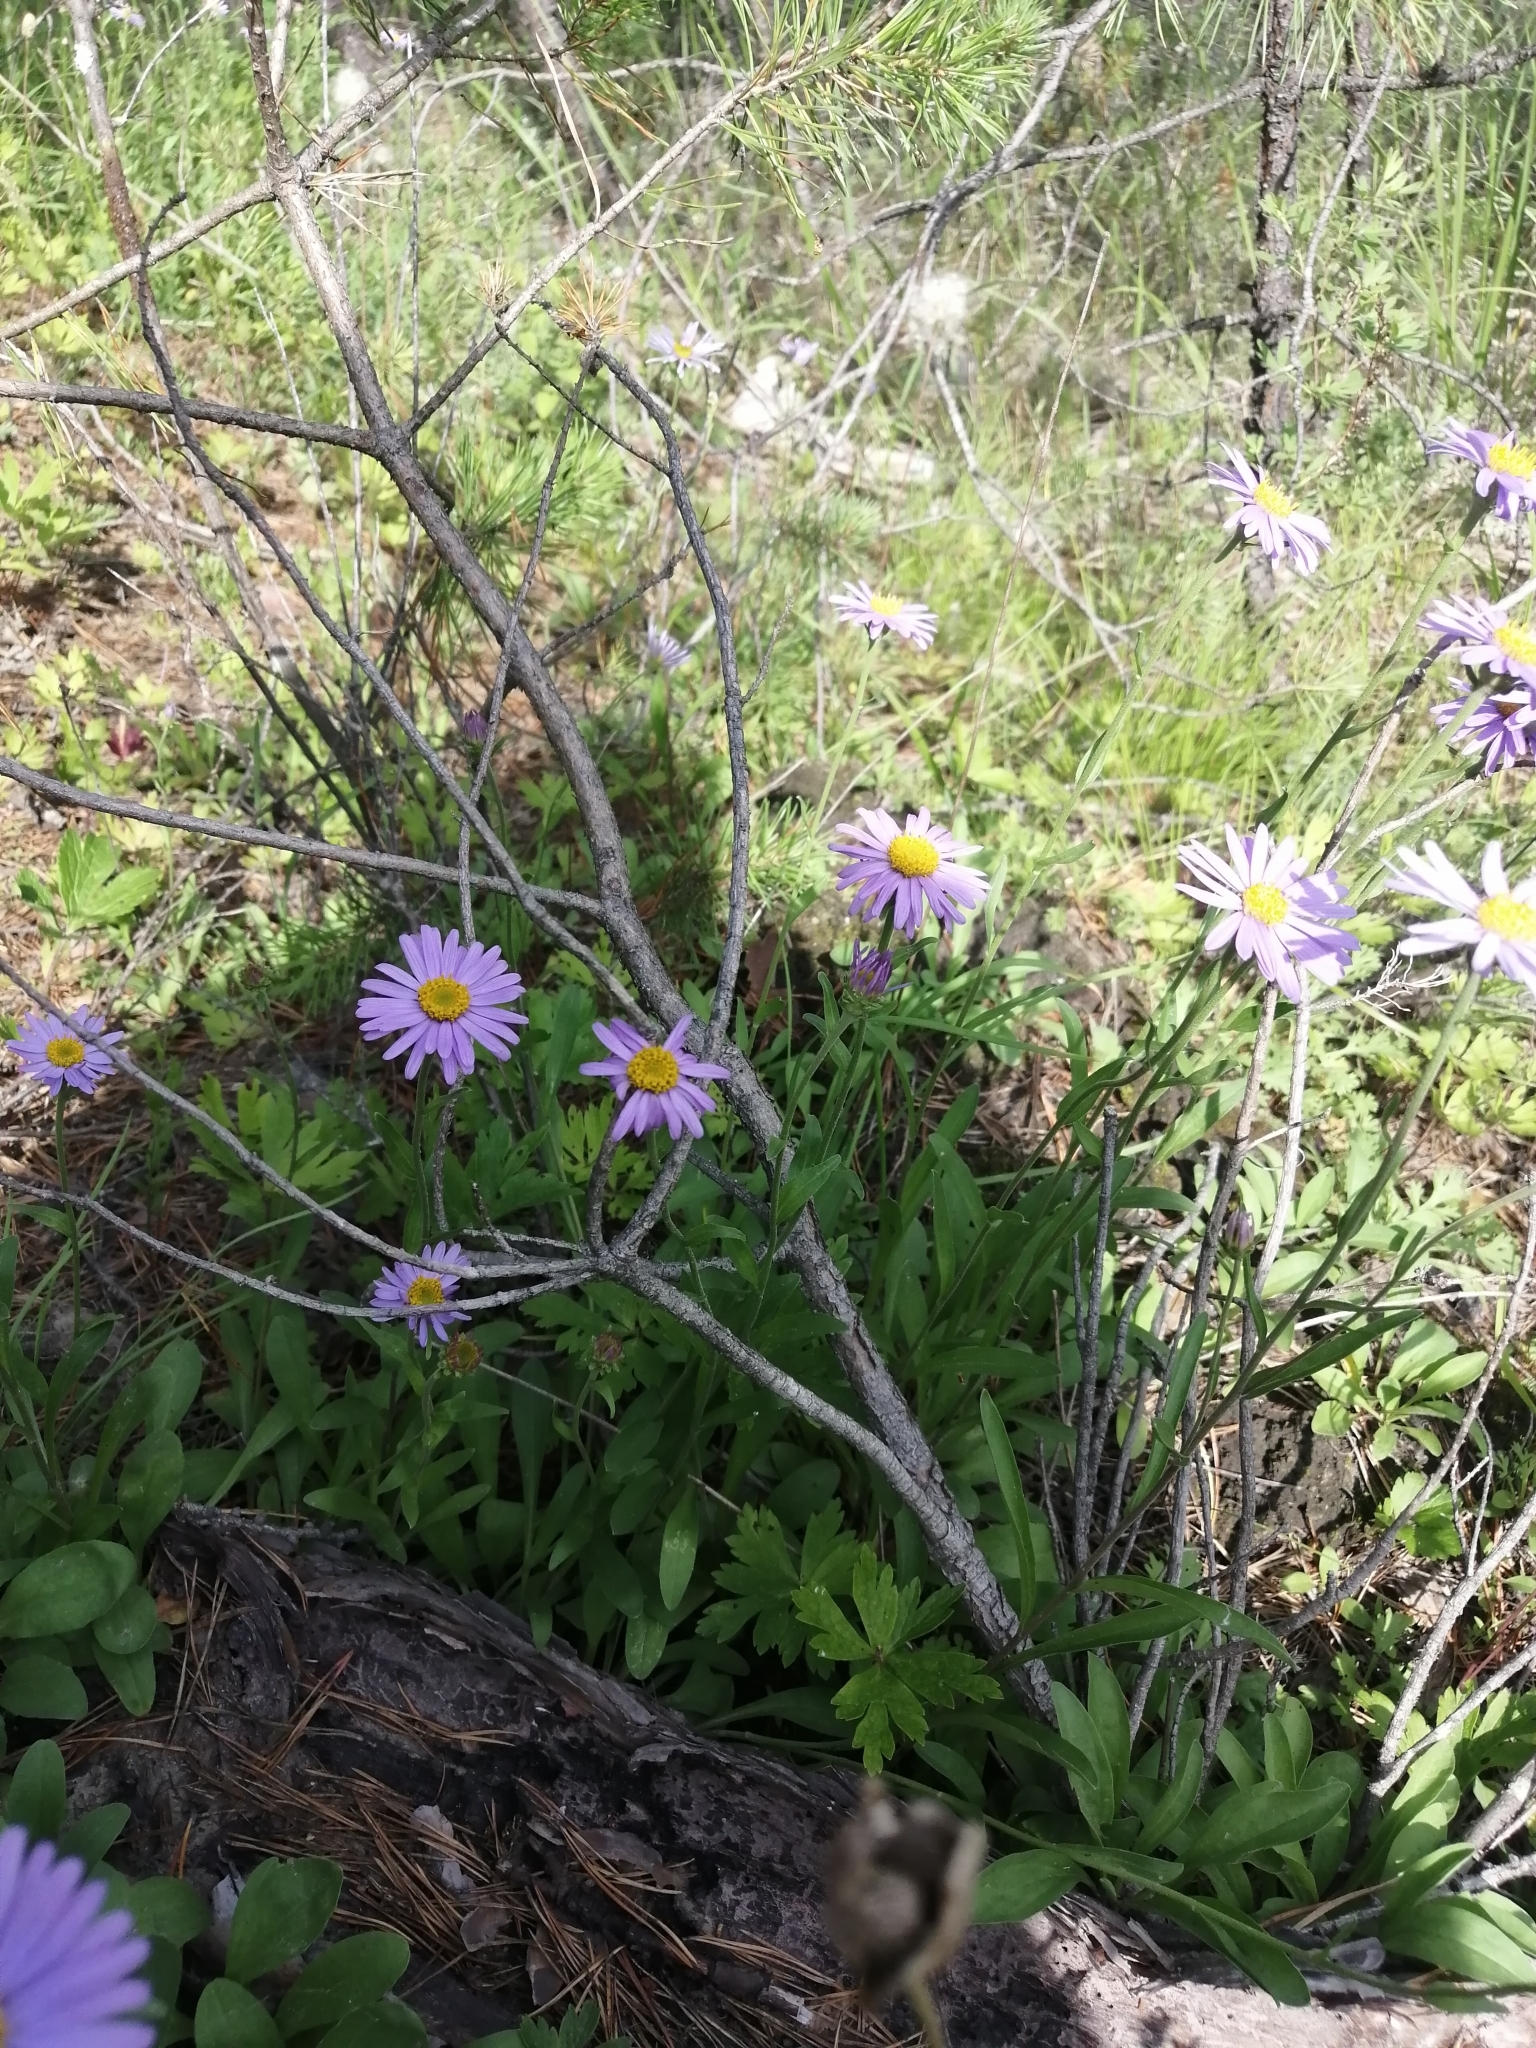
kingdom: Plantae
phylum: Tracheophyta
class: Magnoliopsida
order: Asterales
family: Asteraceae
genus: Aster
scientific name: Aster alpinus
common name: Alpine aster
